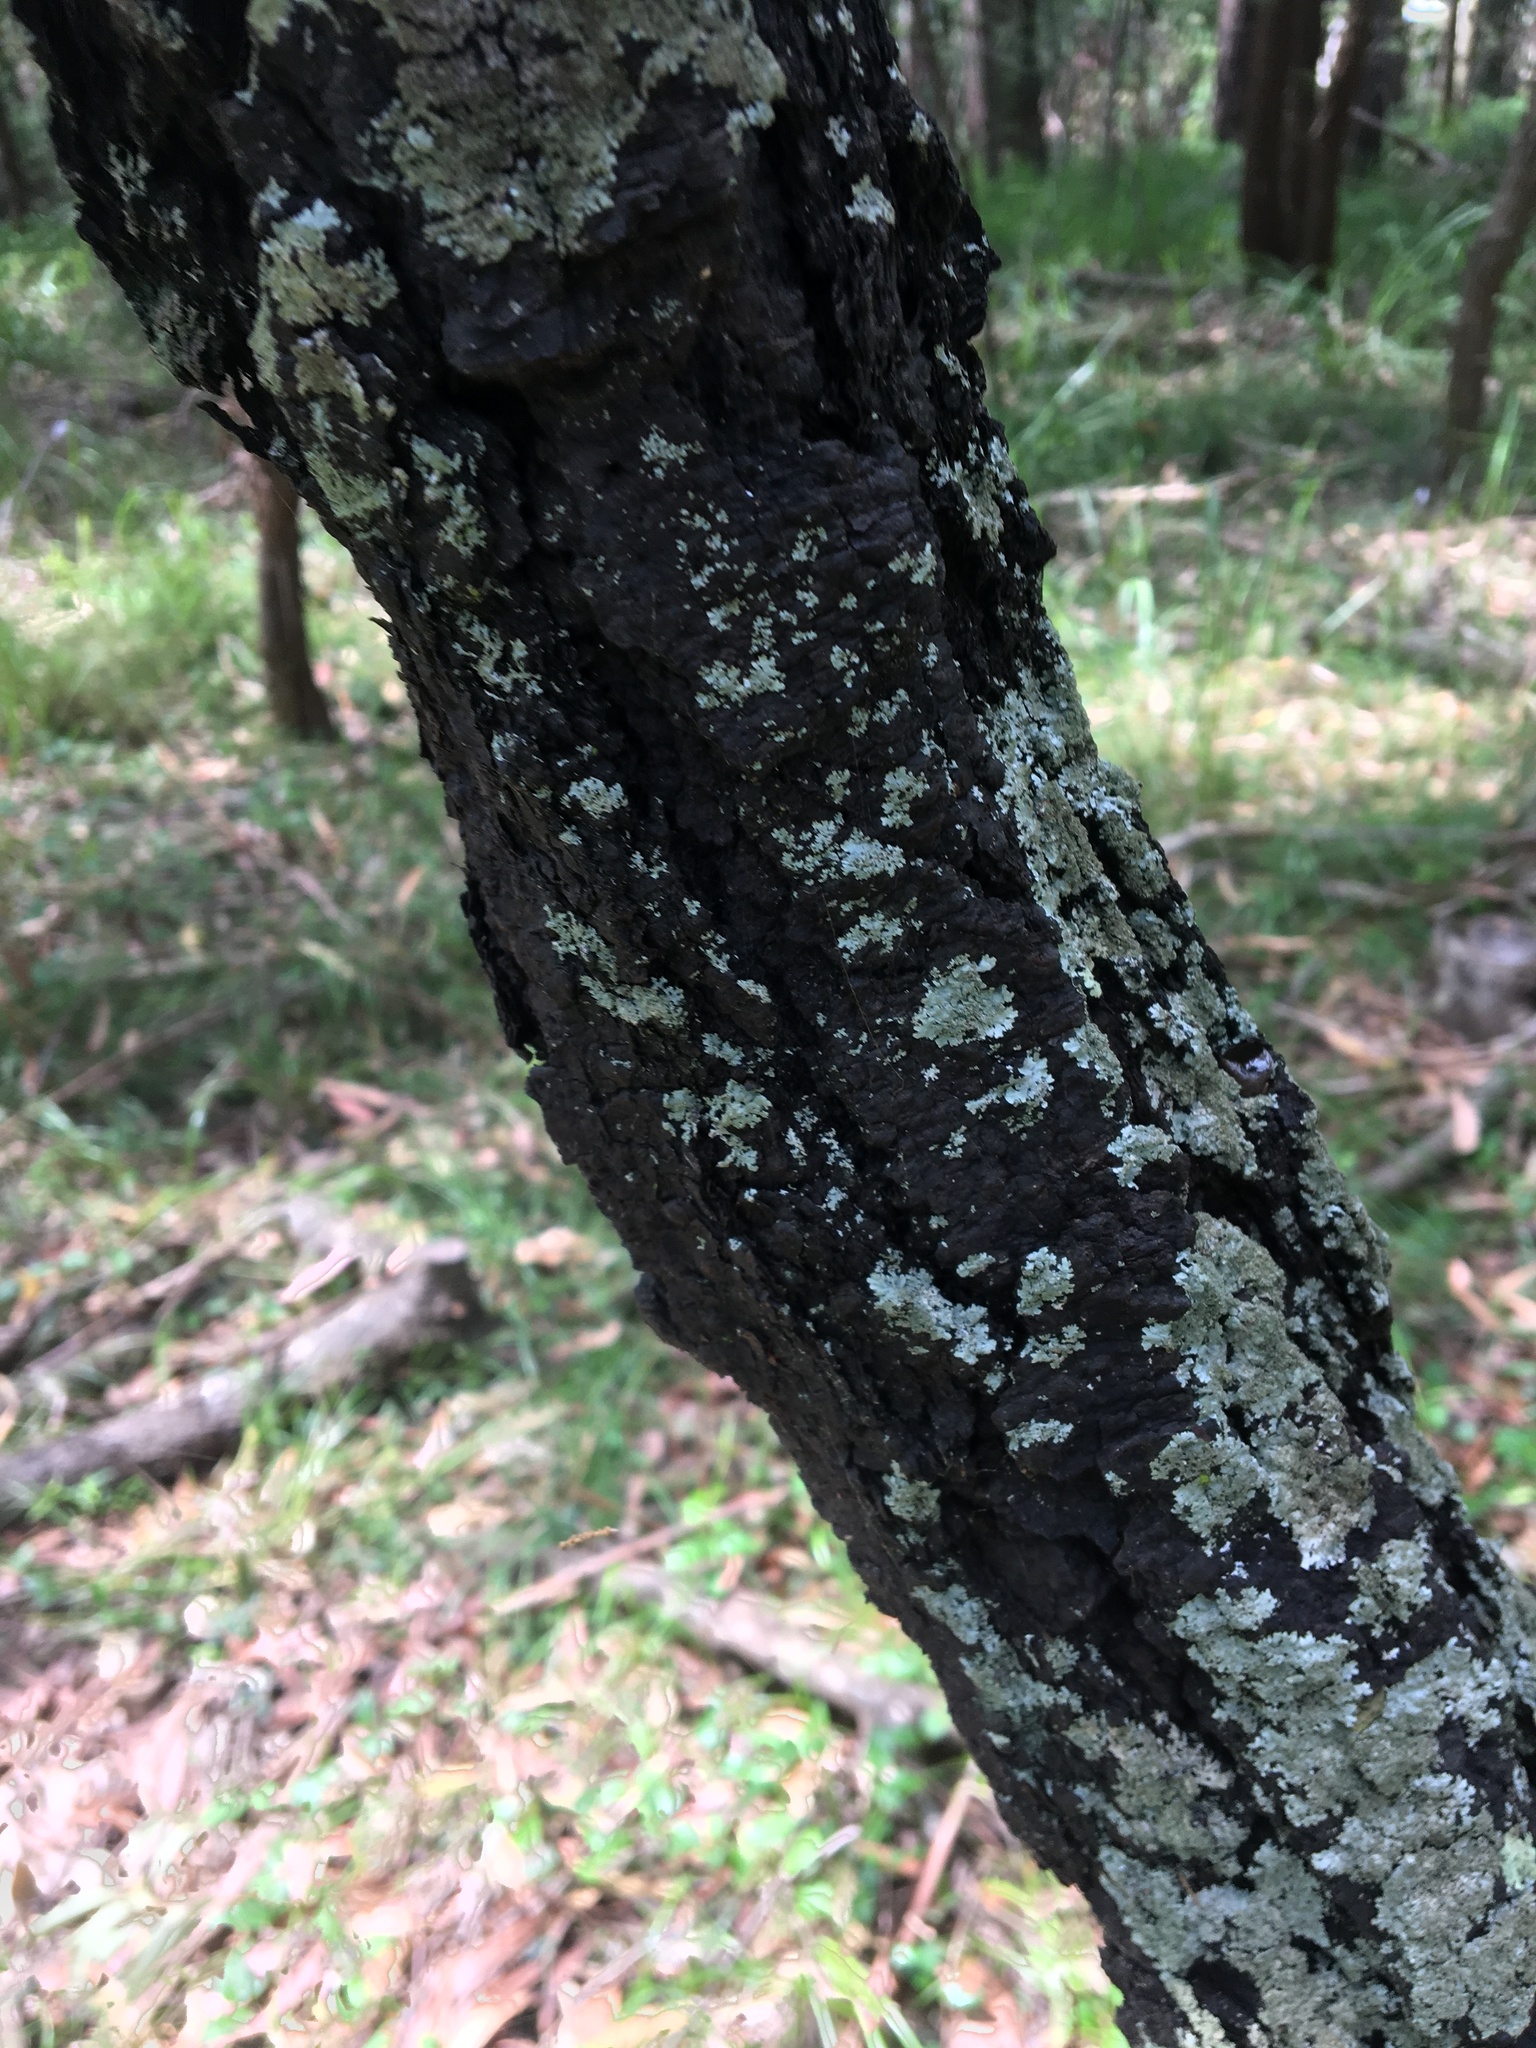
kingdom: Plantae
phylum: Tracheophyta
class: Magnoliopsida
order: Proteales
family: Proteaceae
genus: Persoonia
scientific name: Persoonia linearis
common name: Narrow-leaf geebung
